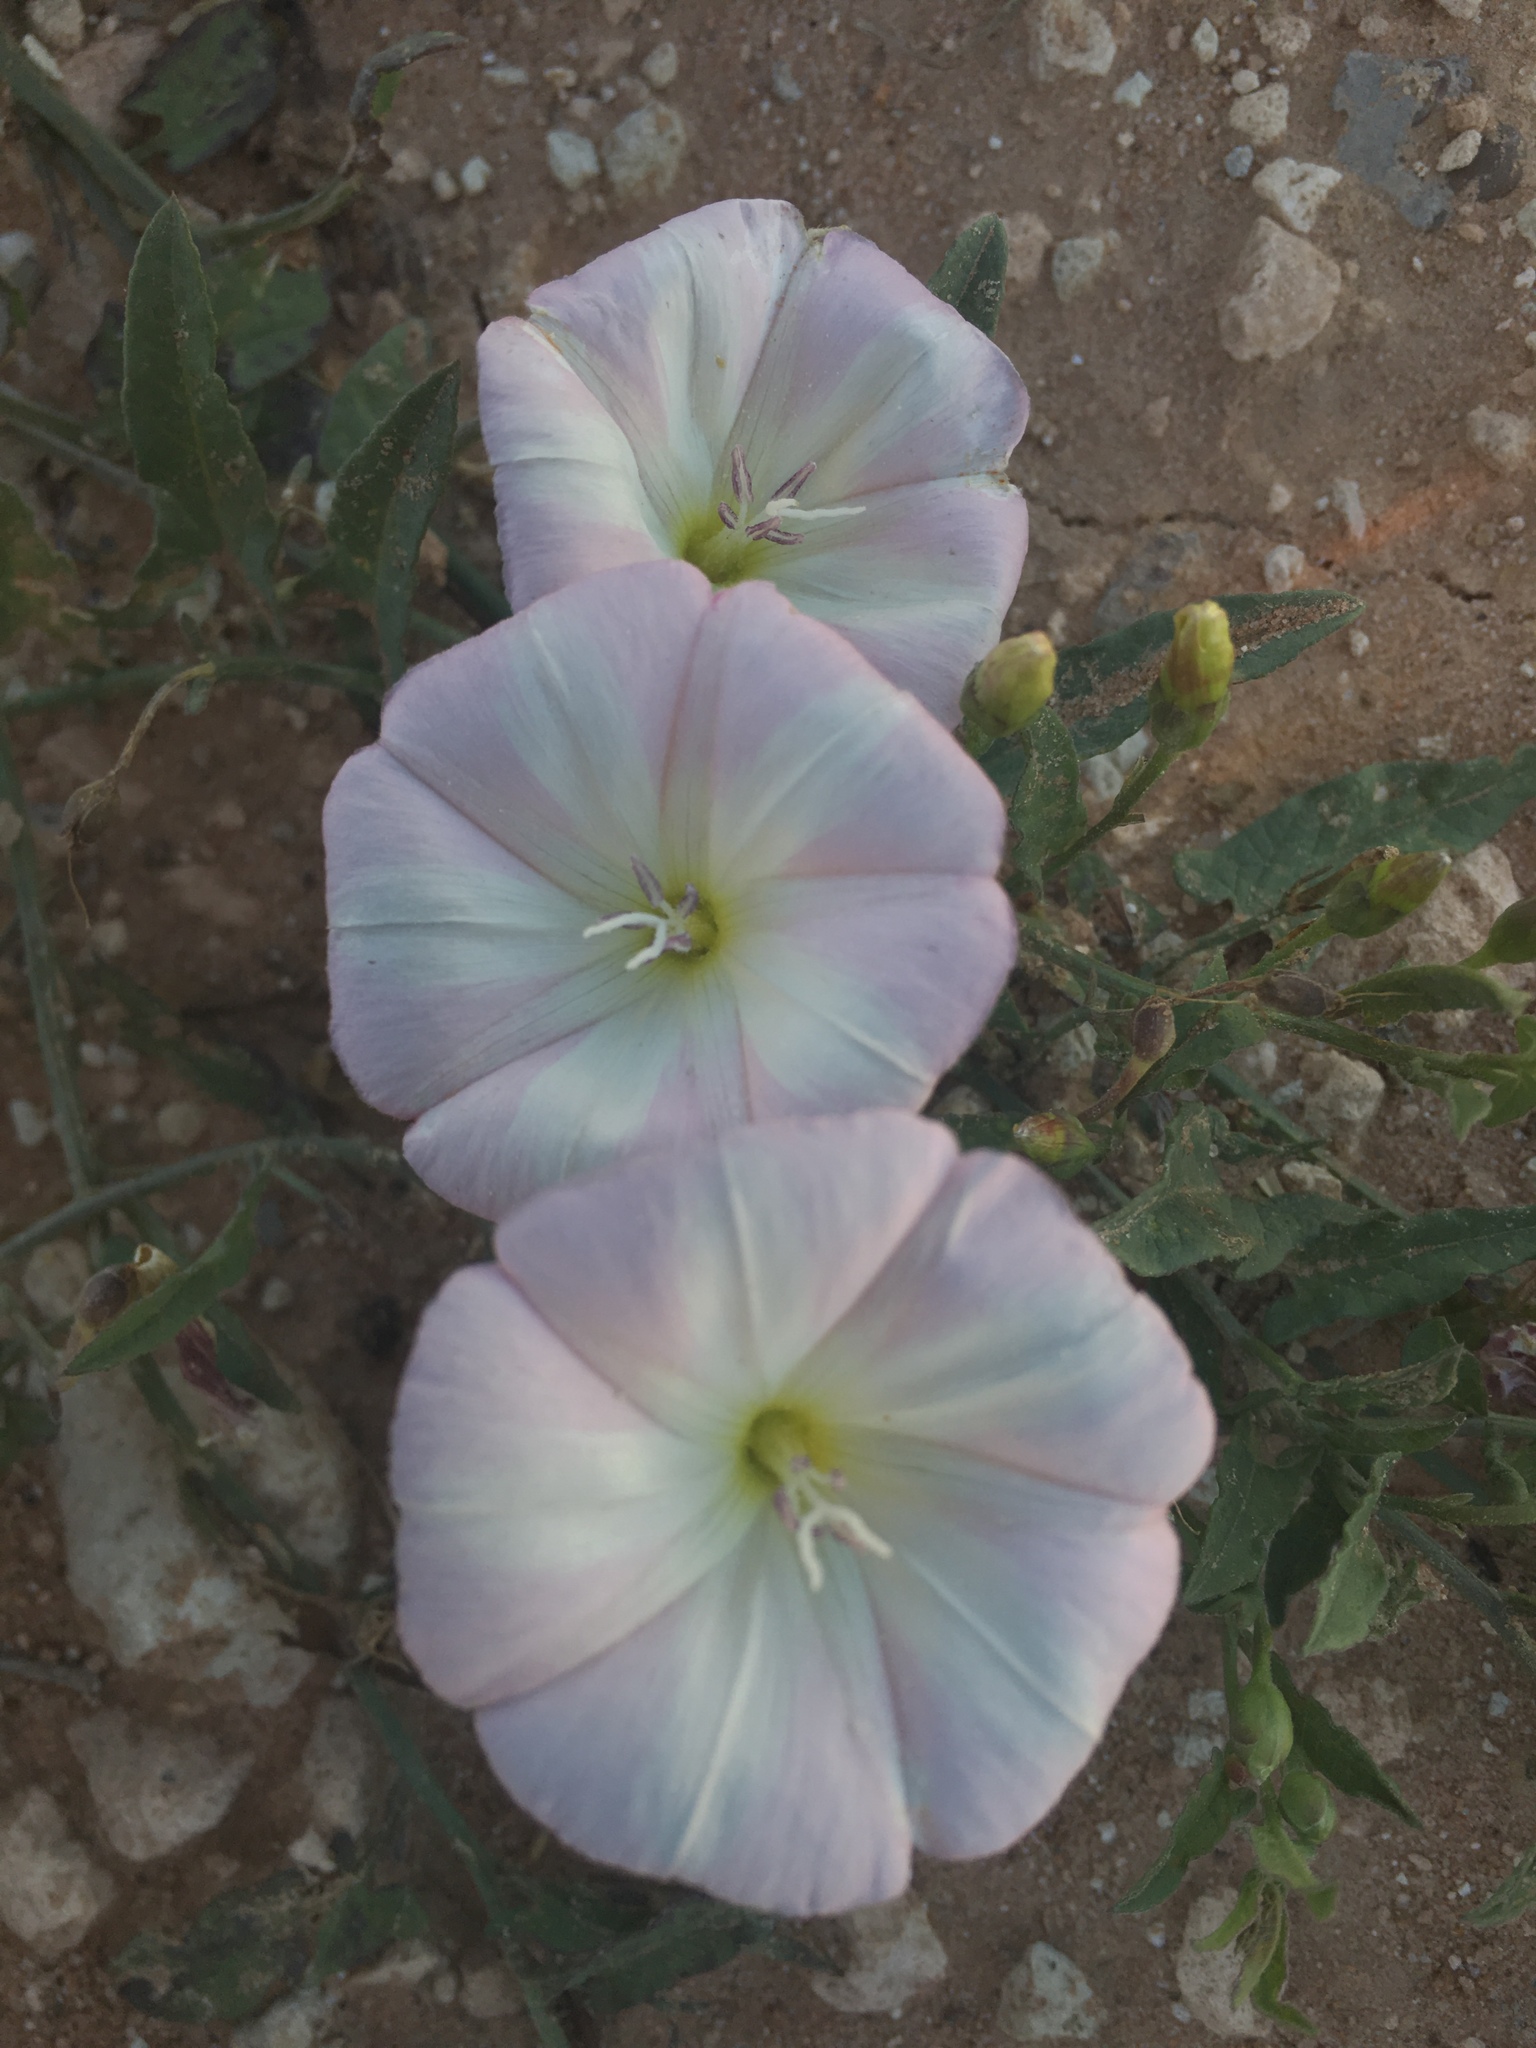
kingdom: Plantae
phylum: Tracheophyta
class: Magnoliopsida
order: Solanales
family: Convolvulaceae
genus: Convolvulus
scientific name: Convolvulus arvensis
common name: Field bindweed
